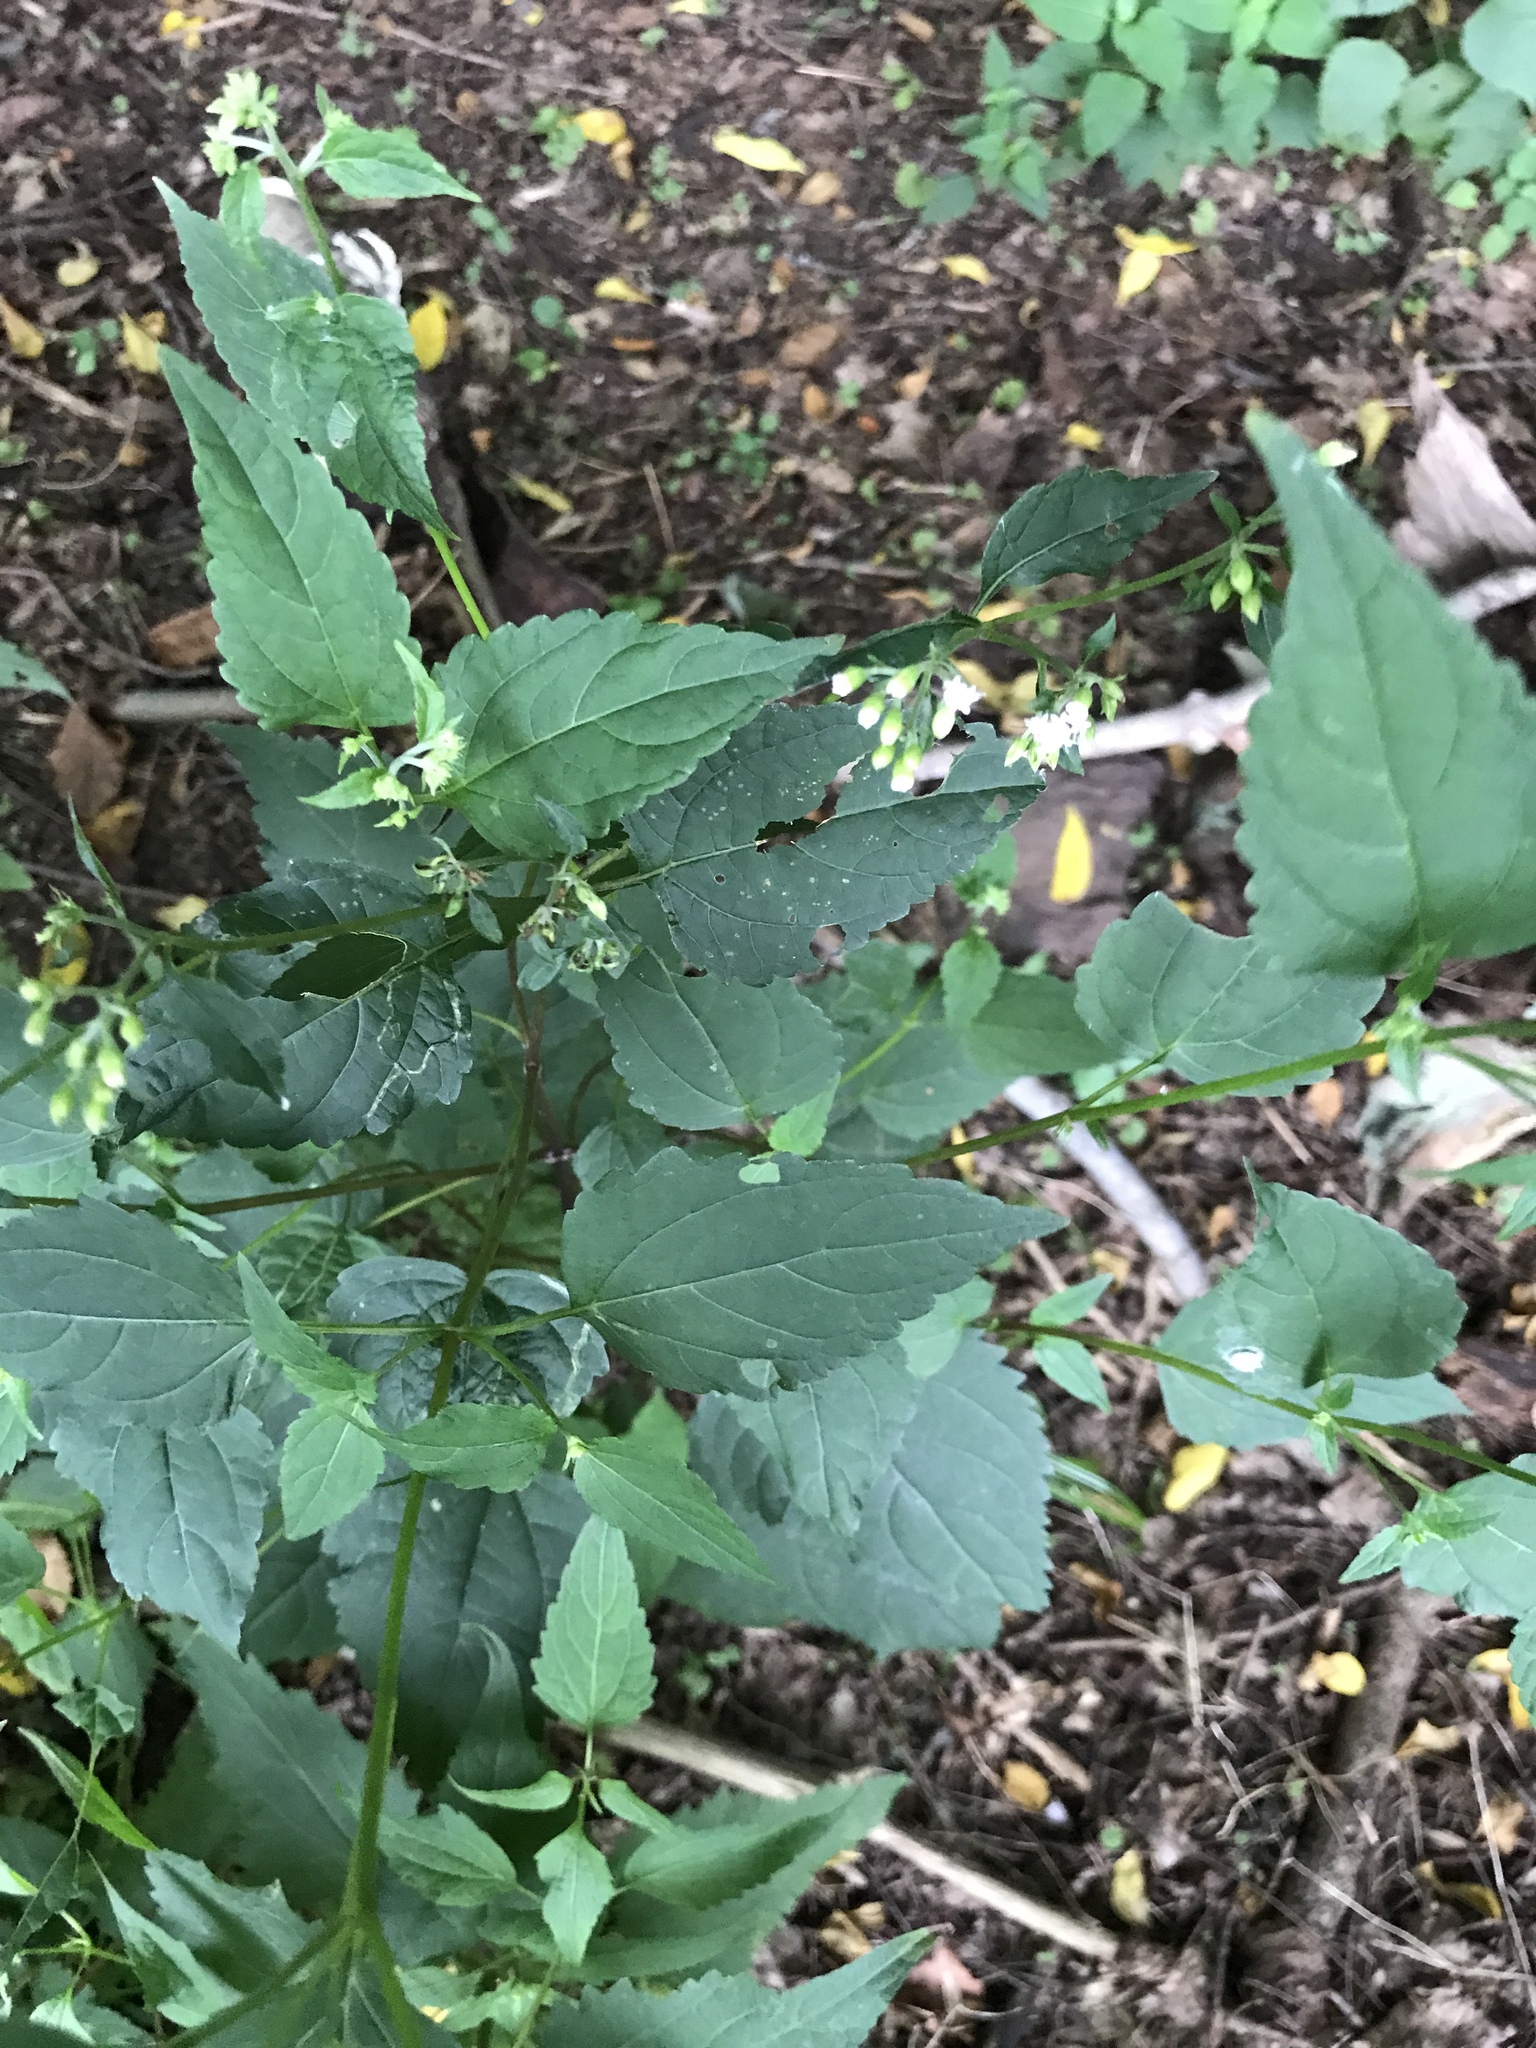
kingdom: Plantae
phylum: Tracheophyta
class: Magnoliopsida
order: Asterales
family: Asteraceae
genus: Ageratina
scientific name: Ageratina altissima
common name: White snakeroot
